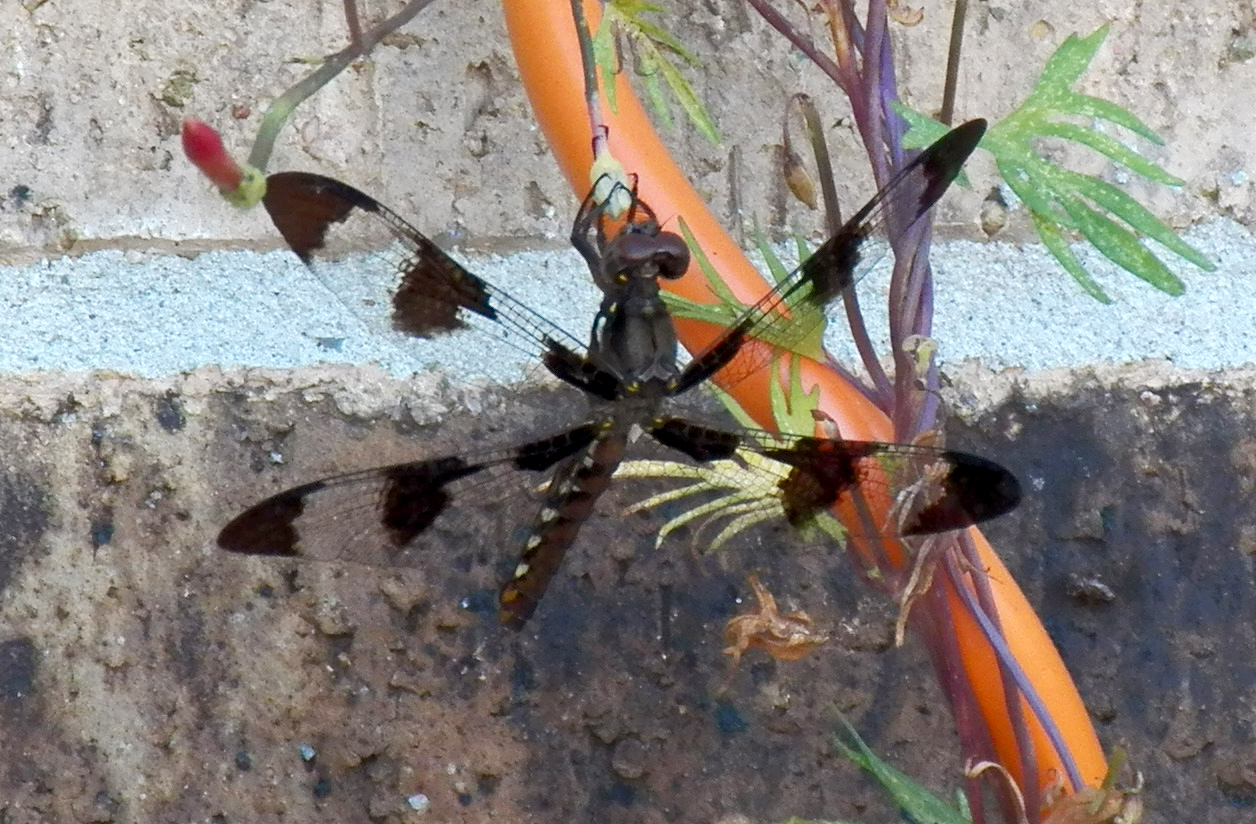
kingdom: Animalia
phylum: Arthropoda
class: Insecta
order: Odonata
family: Libellulidae
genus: Plathemis
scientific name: Plathemis lydia
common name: Common whitetail
